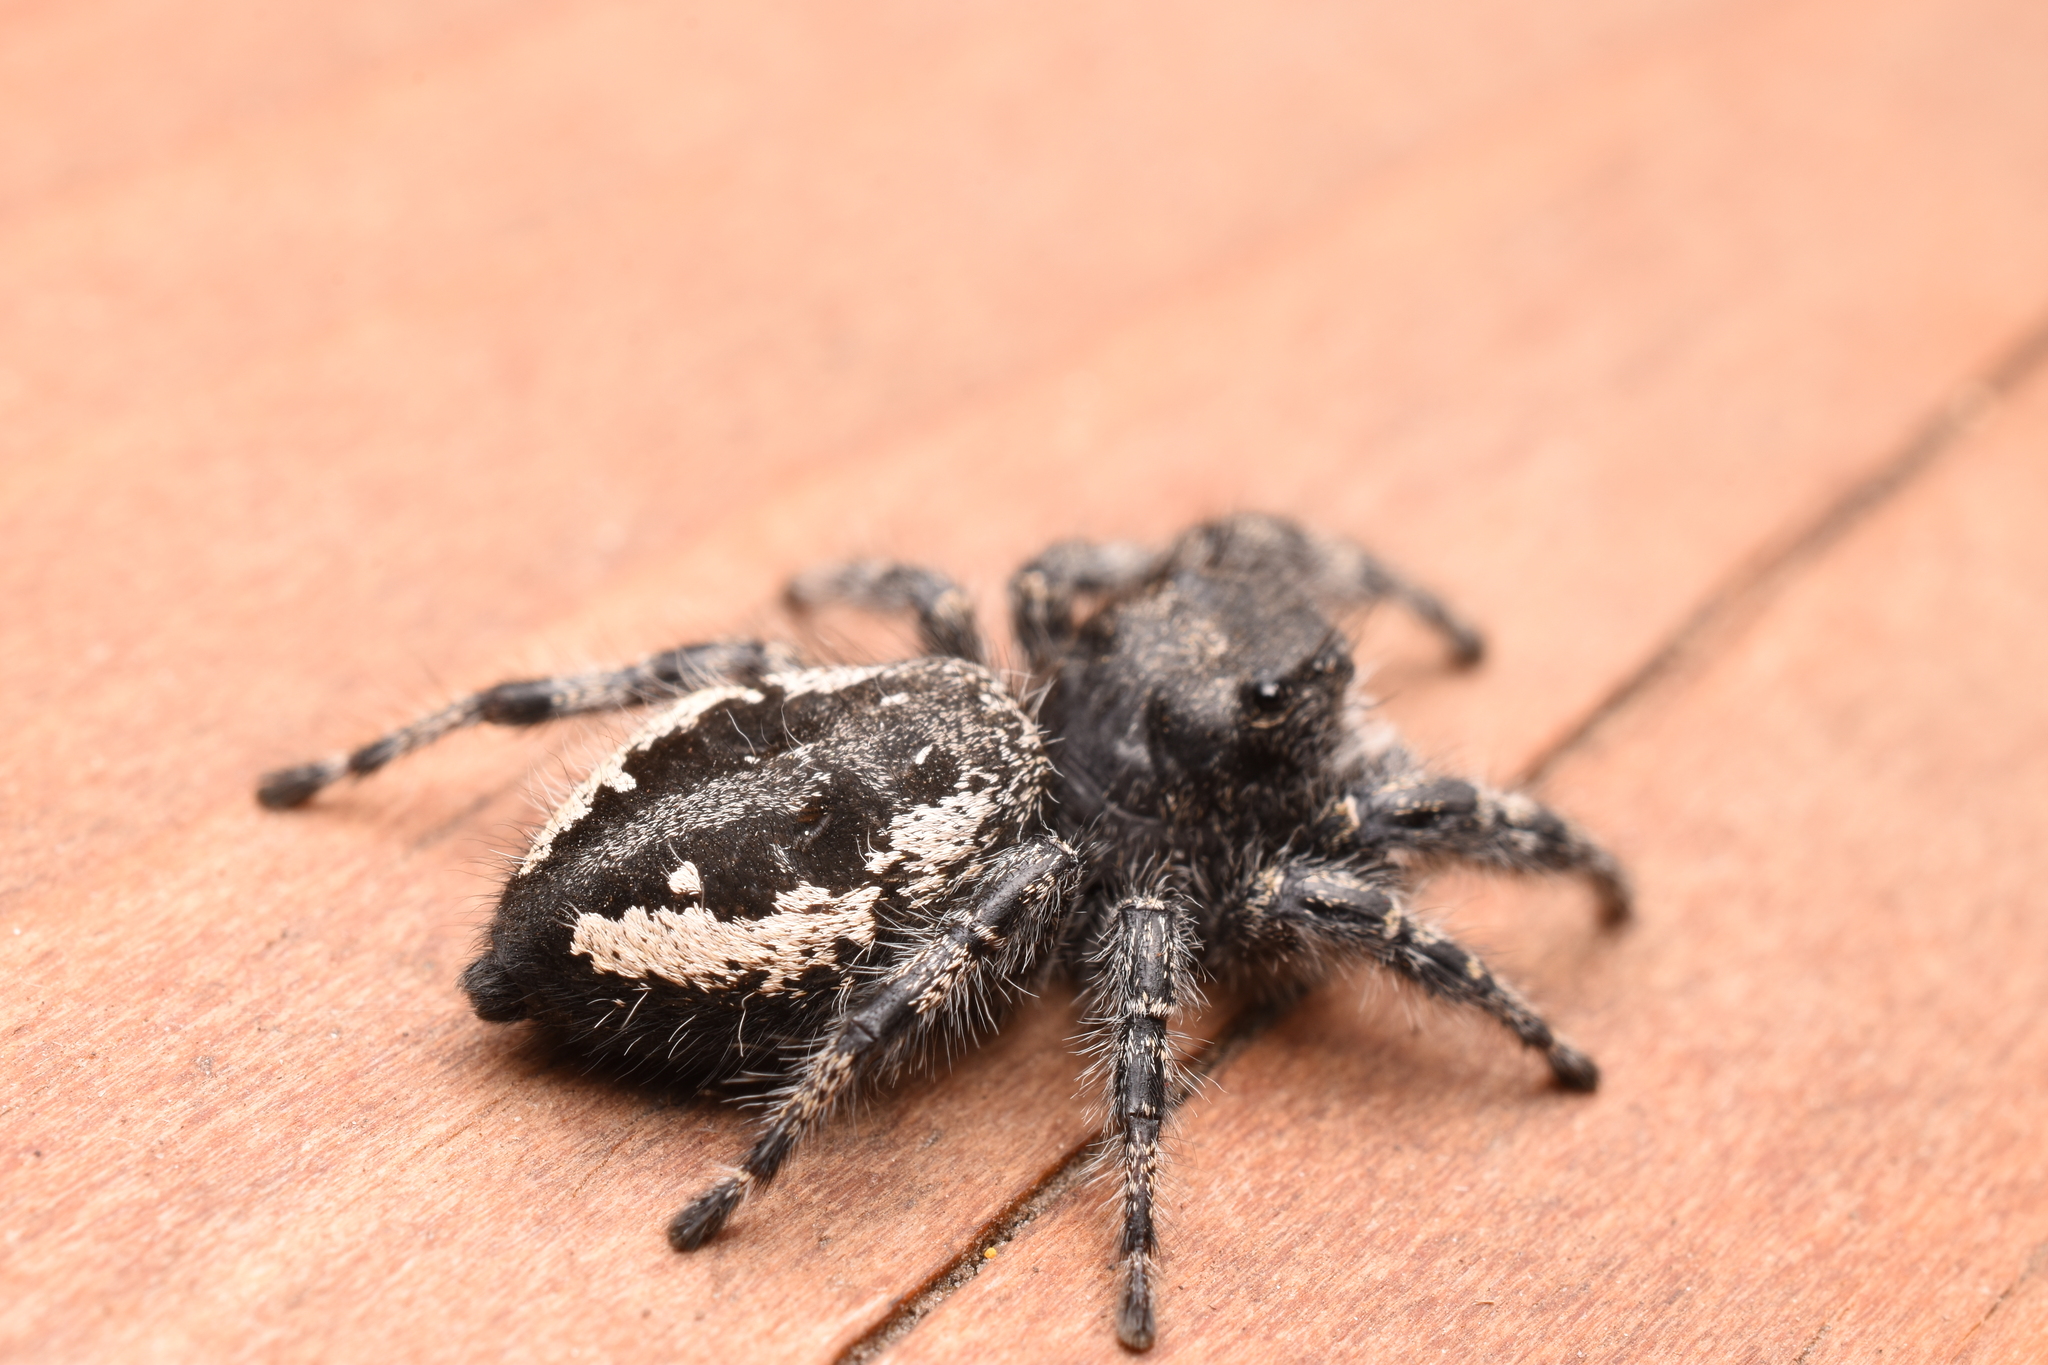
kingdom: Animalia
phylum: Arthropoda
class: Arachnida
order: Araneae
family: Salticidae
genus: Phidippus
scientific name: Phidippus borealis
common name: Boreal tufted jumping spider
